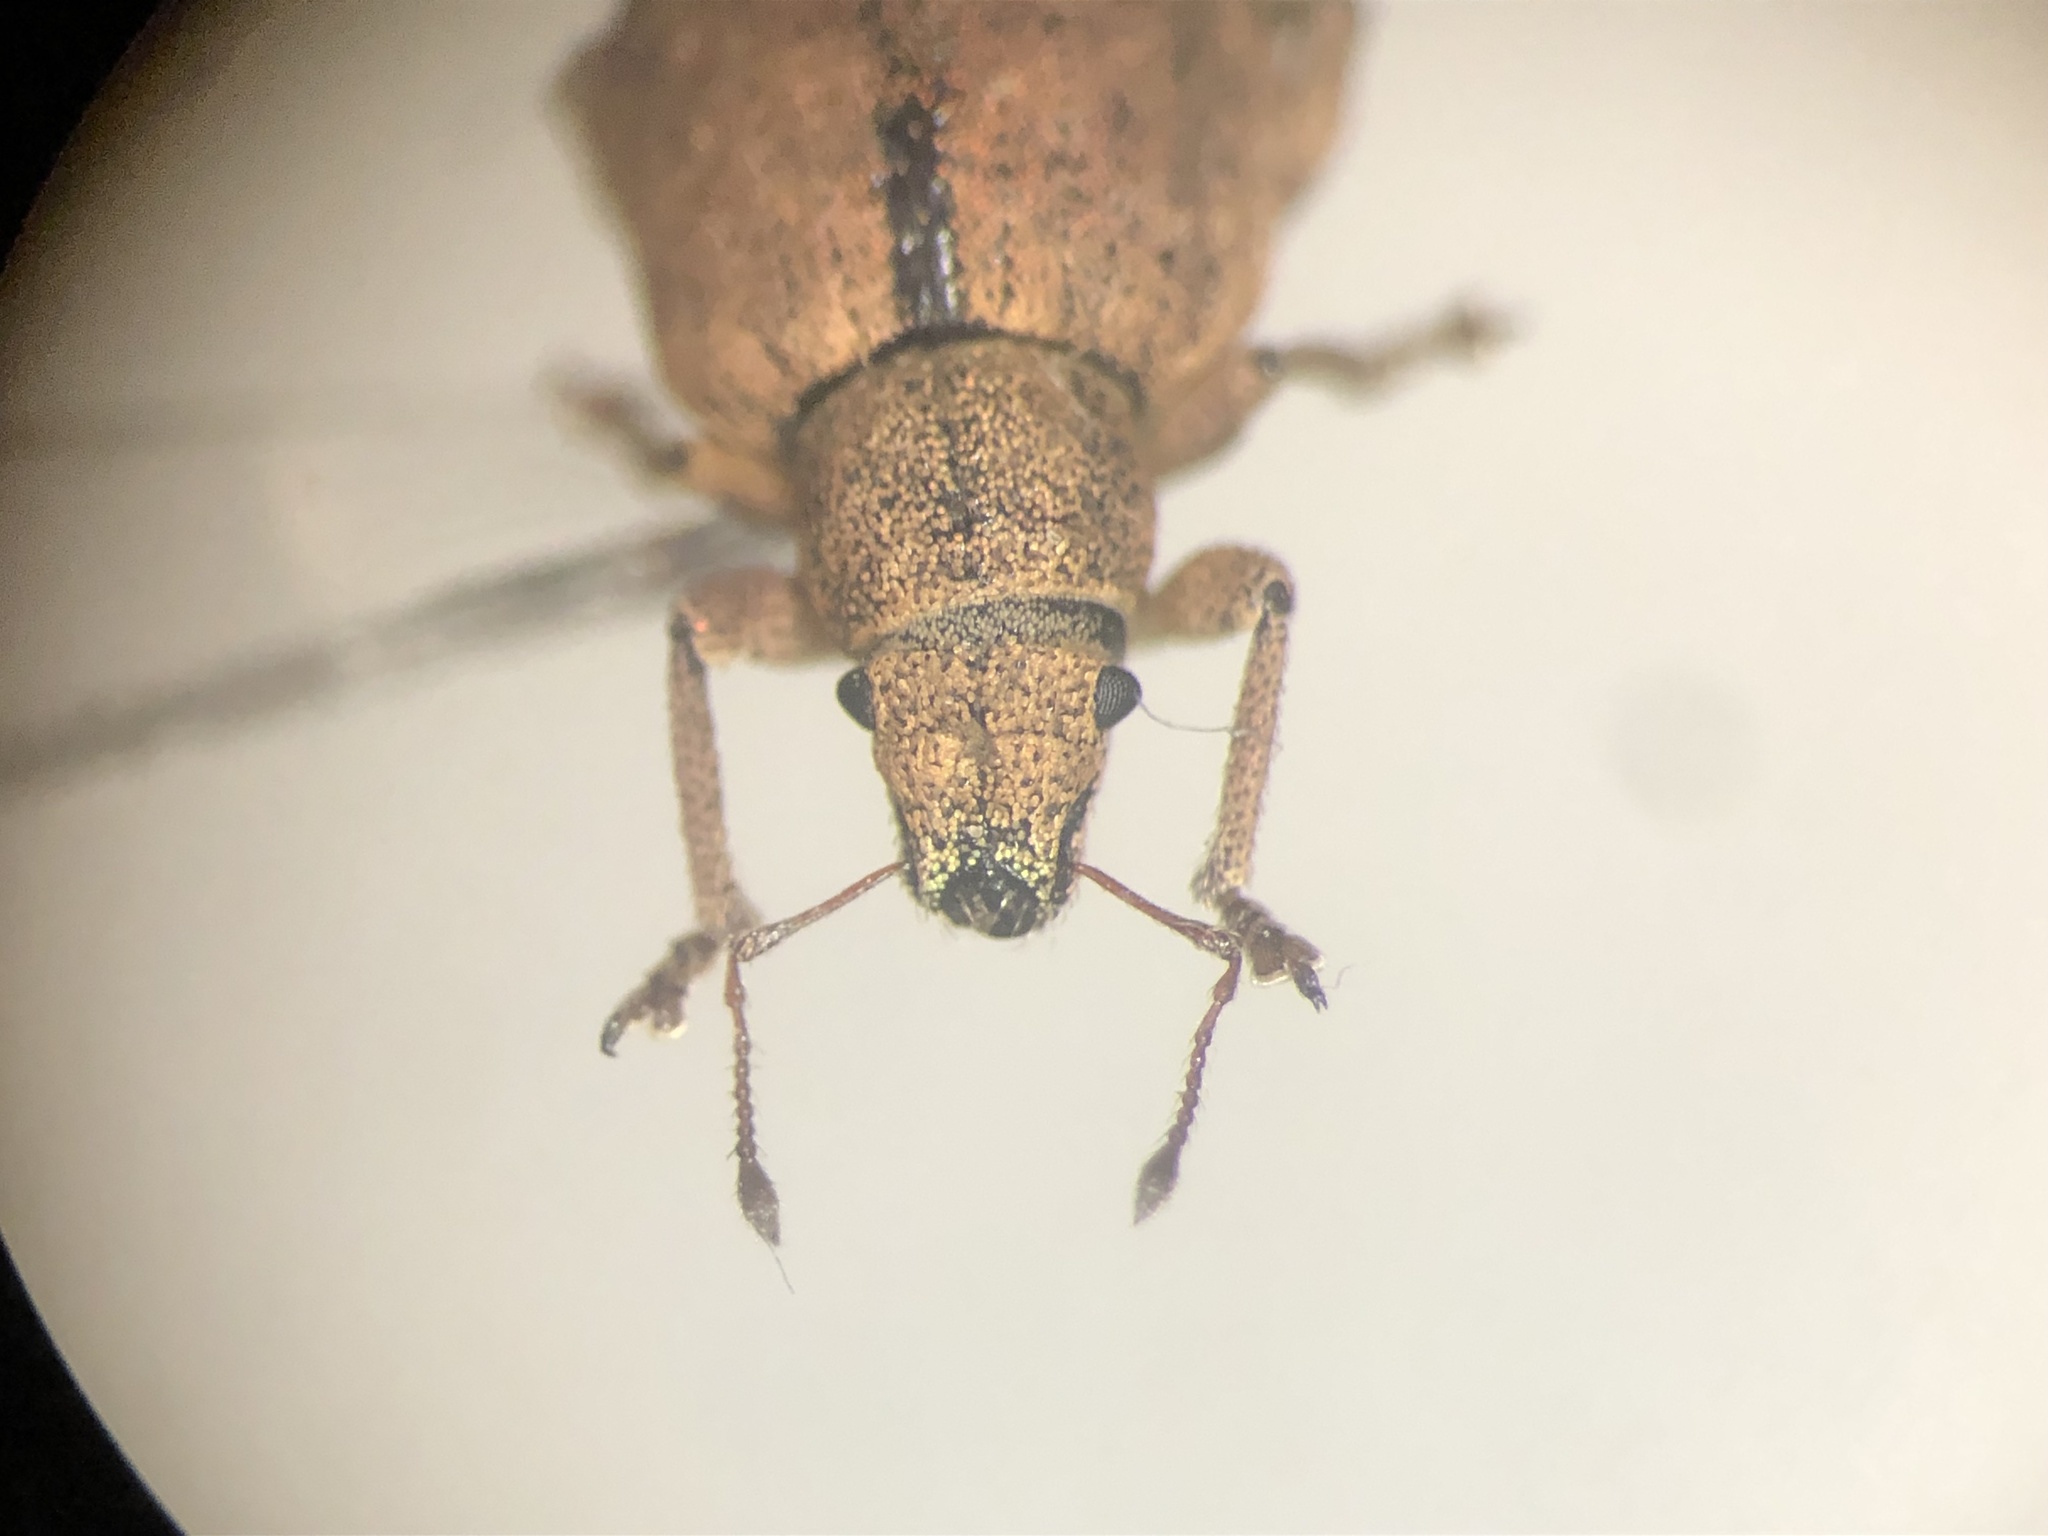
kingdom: Animalia
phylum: Arthropoda
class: Insecta
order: Coleoptera
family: Curculionidae
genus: Strophosoma
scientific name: Strophosoma melanogrammum
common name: Weevil
